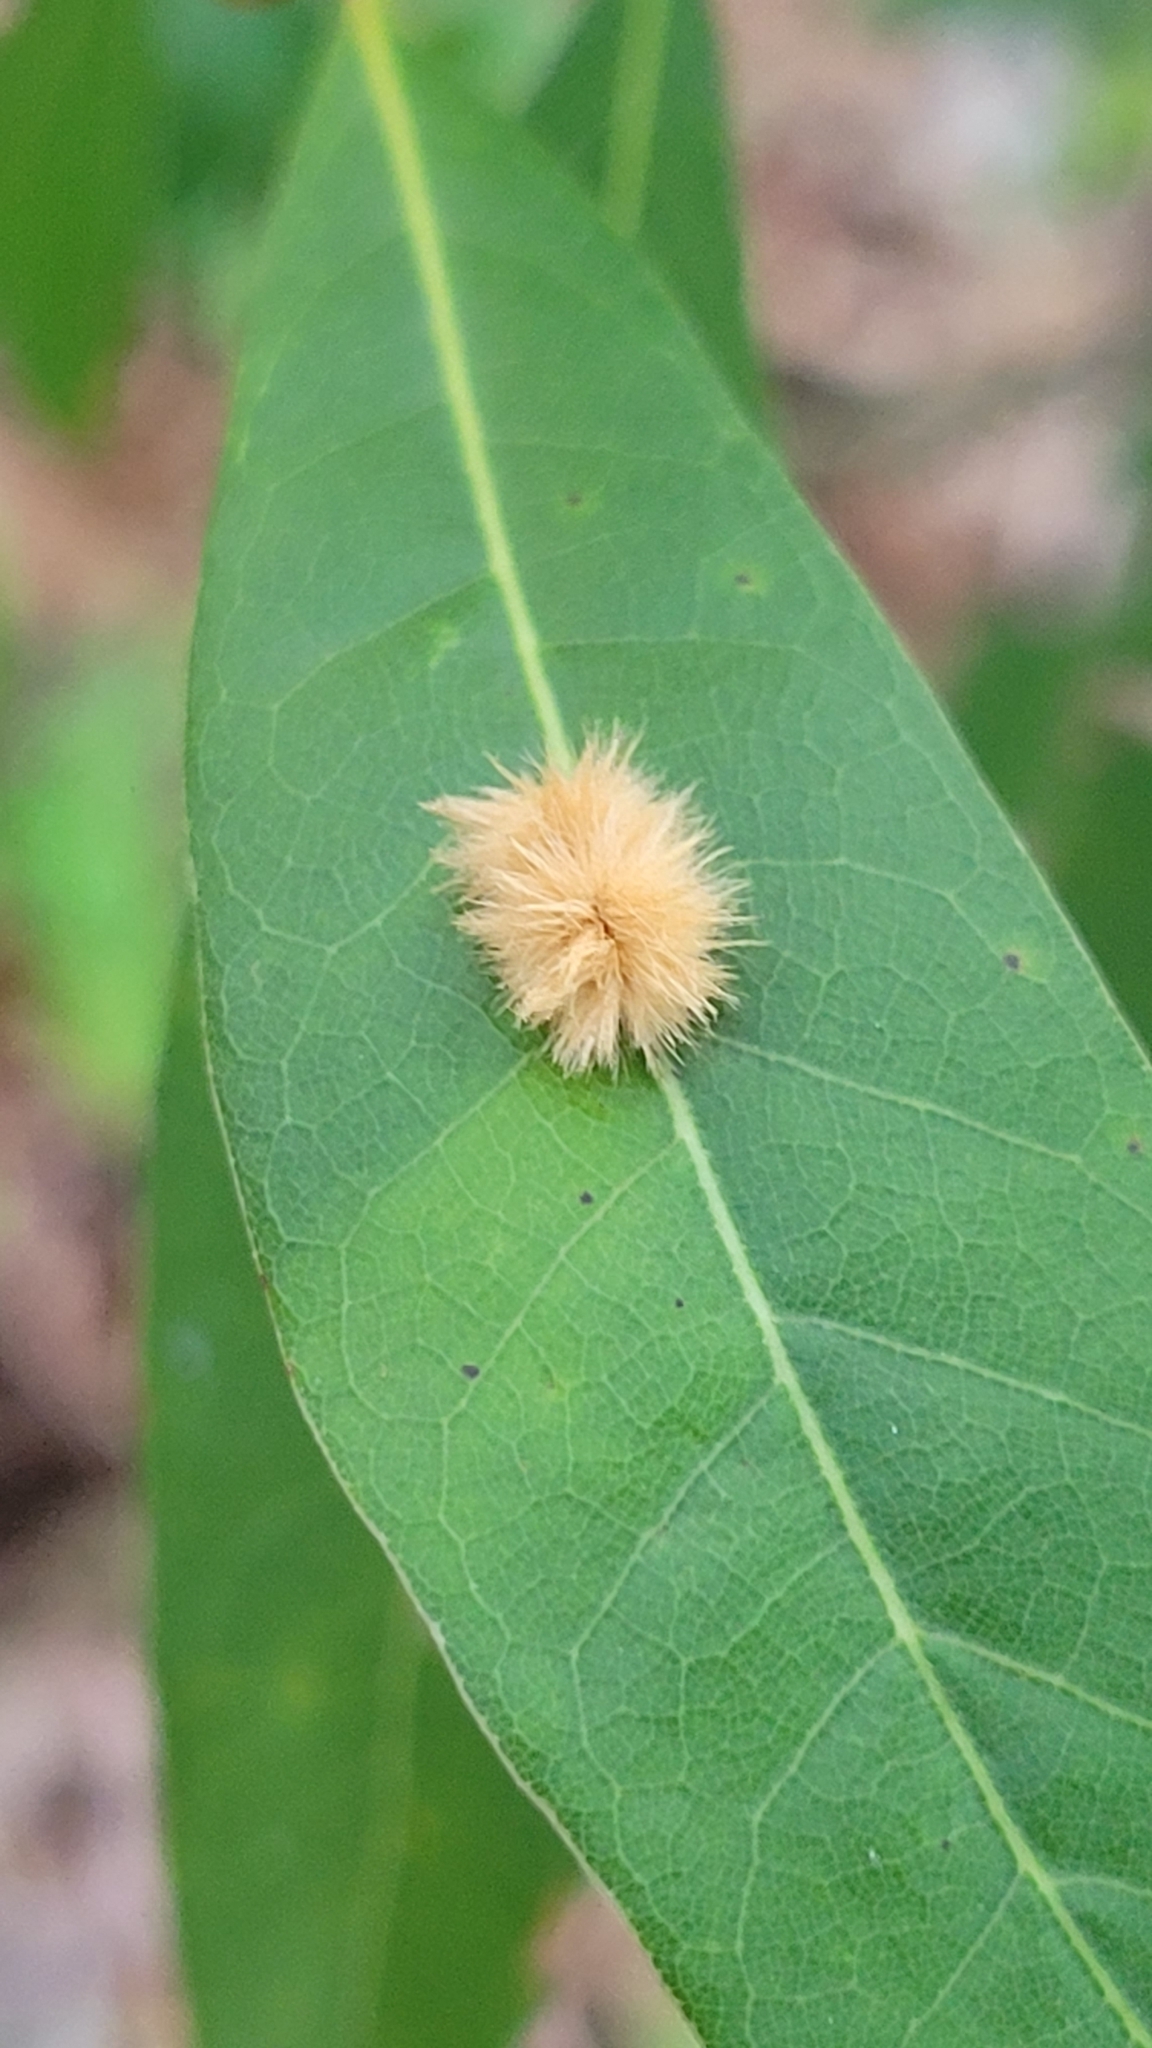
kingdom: Animalia
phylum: Arthropoda
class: Insecta
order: Hymenoptera
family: Cynipidae
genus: Callirhytis
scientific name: Callirhytis
